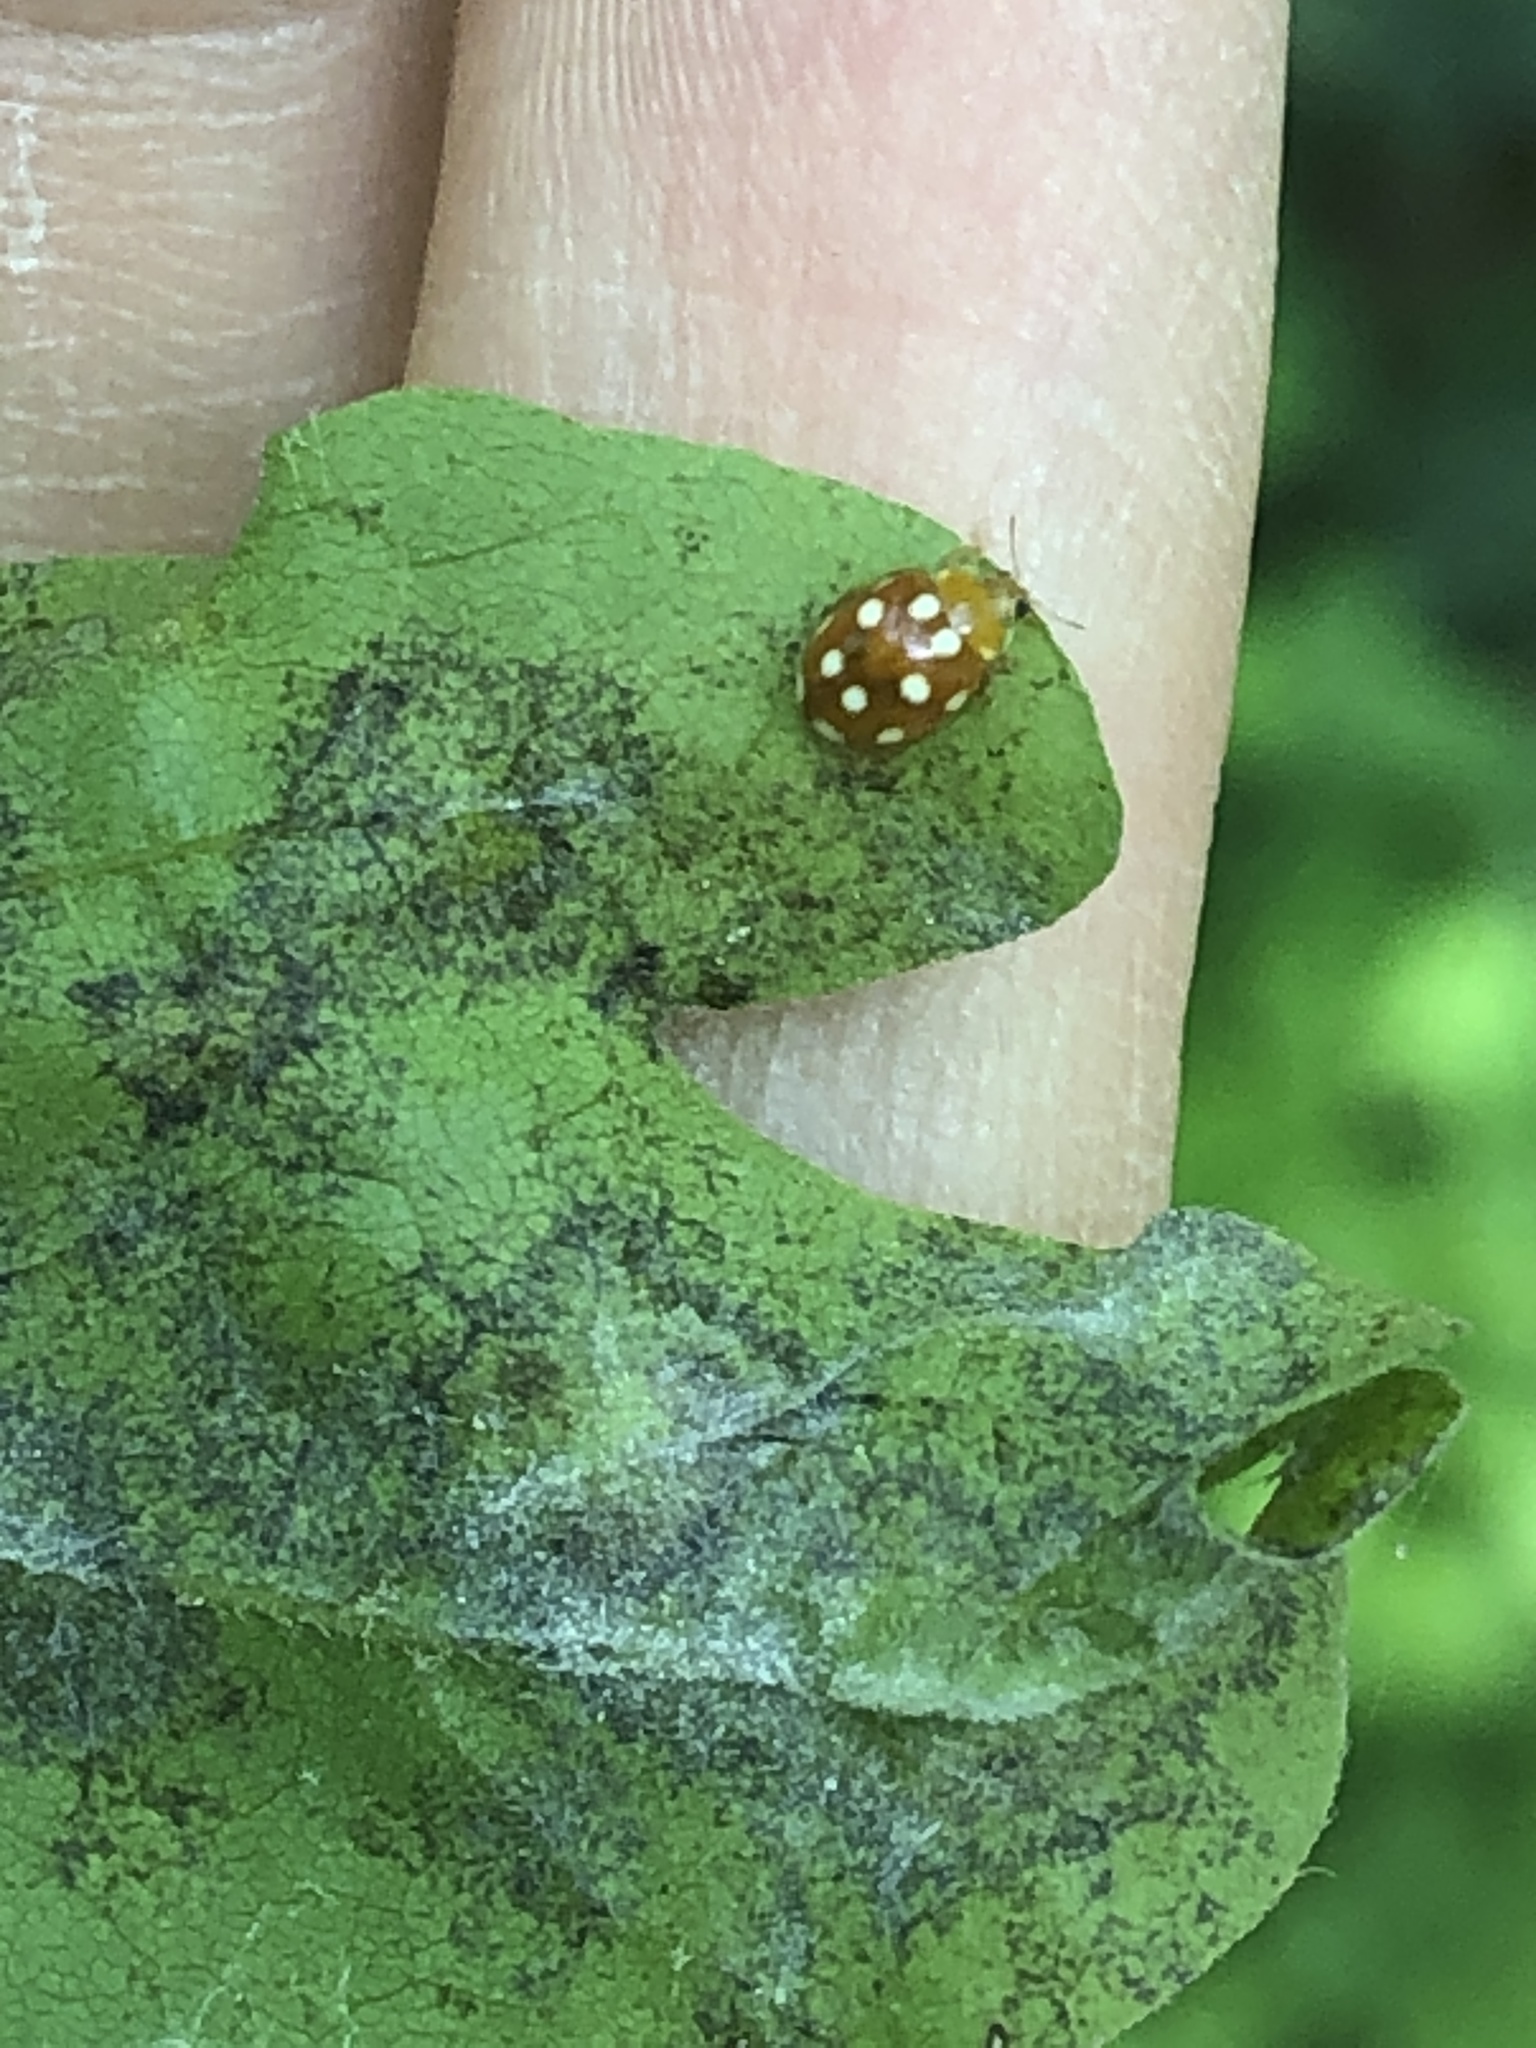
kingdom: Animalia
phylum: Arthropoda
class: Insecta
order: Coleoptera
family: Coccinellidae
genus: Vibidia
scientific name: Vibidia duodecimguttata
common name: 12-spot ladybird
